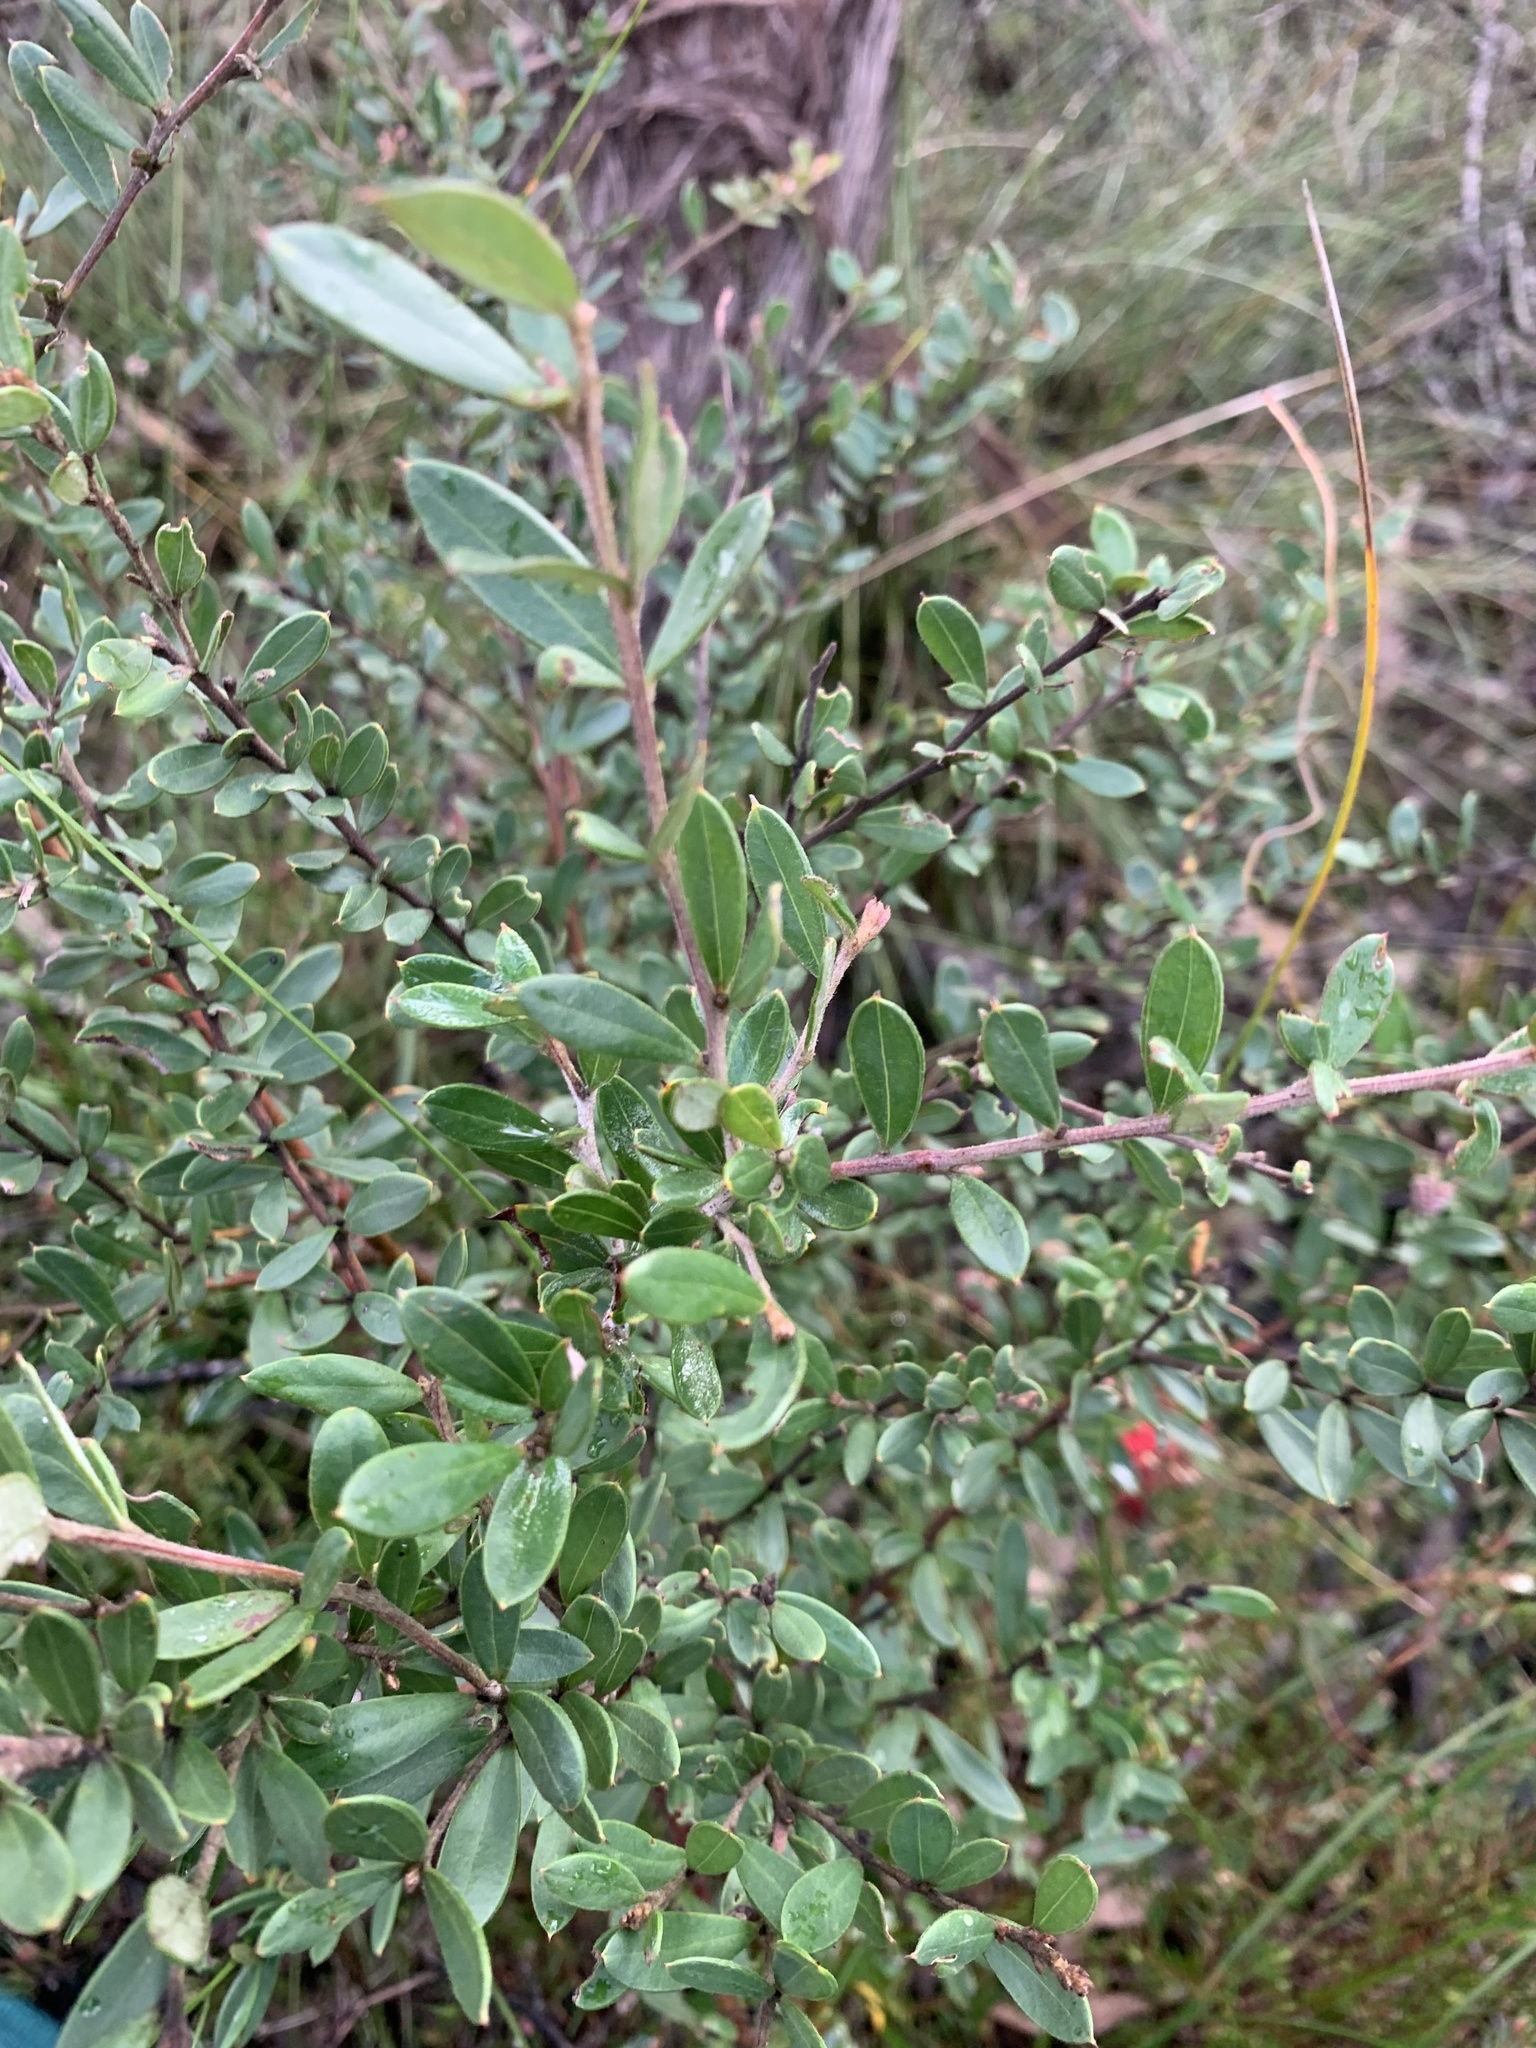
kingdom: Plantae
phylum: Tracheophyta
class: Magnoliopsida
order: Proteales
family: Proteaceae
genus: Grevillea
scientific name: Grevillea speciosa
